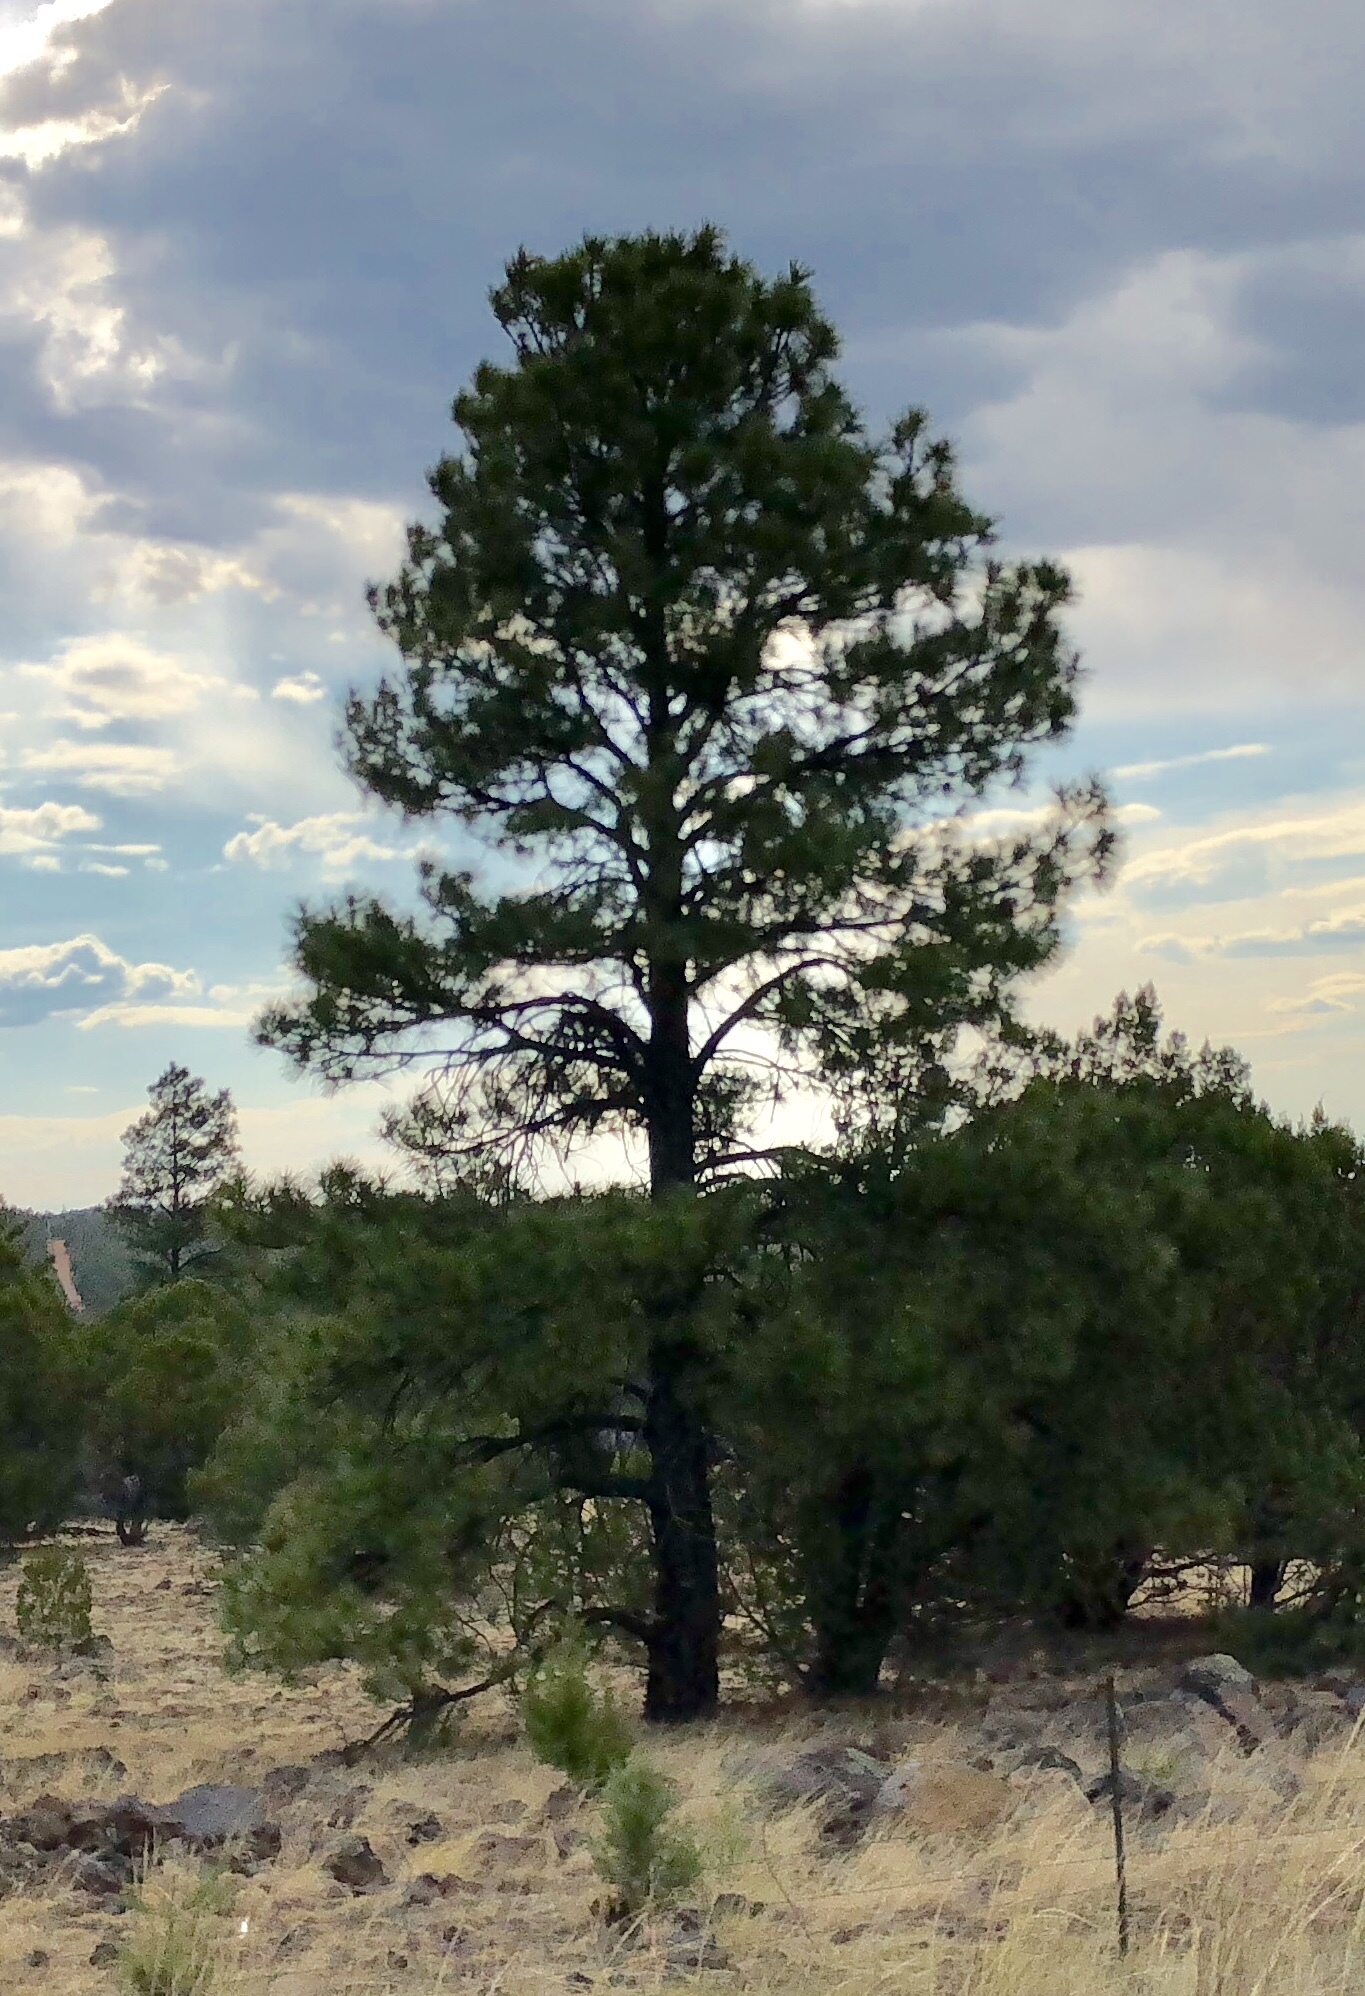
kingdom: Plantae
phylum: Tracheophyta
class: Pinopsida
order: Pinales
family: Pinaceae
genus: Pinus
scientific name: Pinus ponderosa
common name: Western yellow-pine
